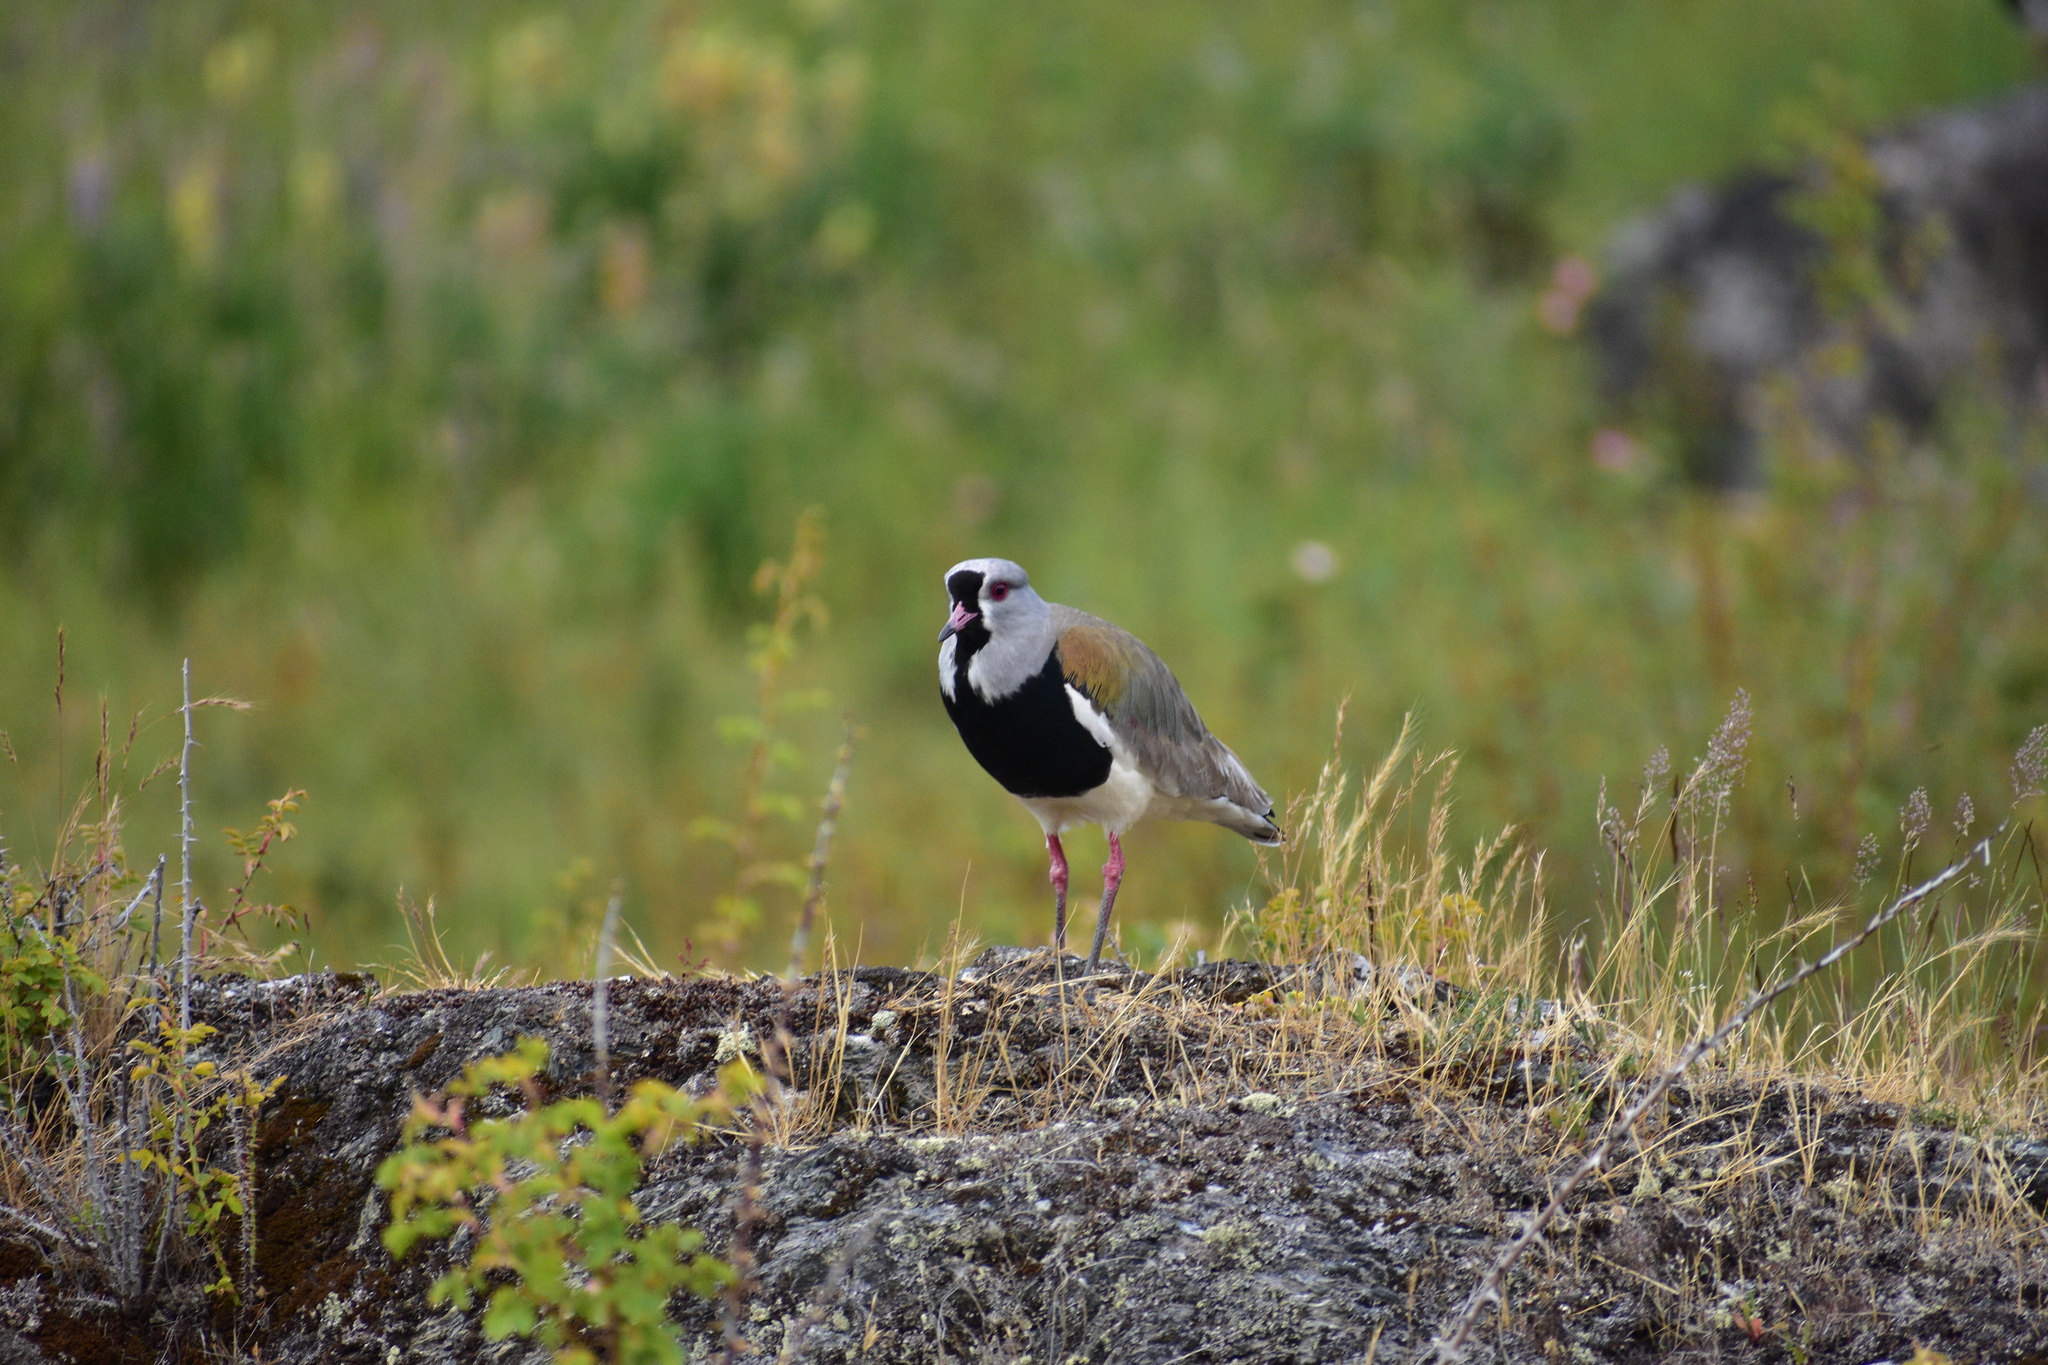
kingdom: Animalia
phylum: Chordata
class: Aves
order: Charadriiformes
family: Charadriidae
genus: Vanellus
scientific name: Vanellus chilensis
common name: Southern lapwing
